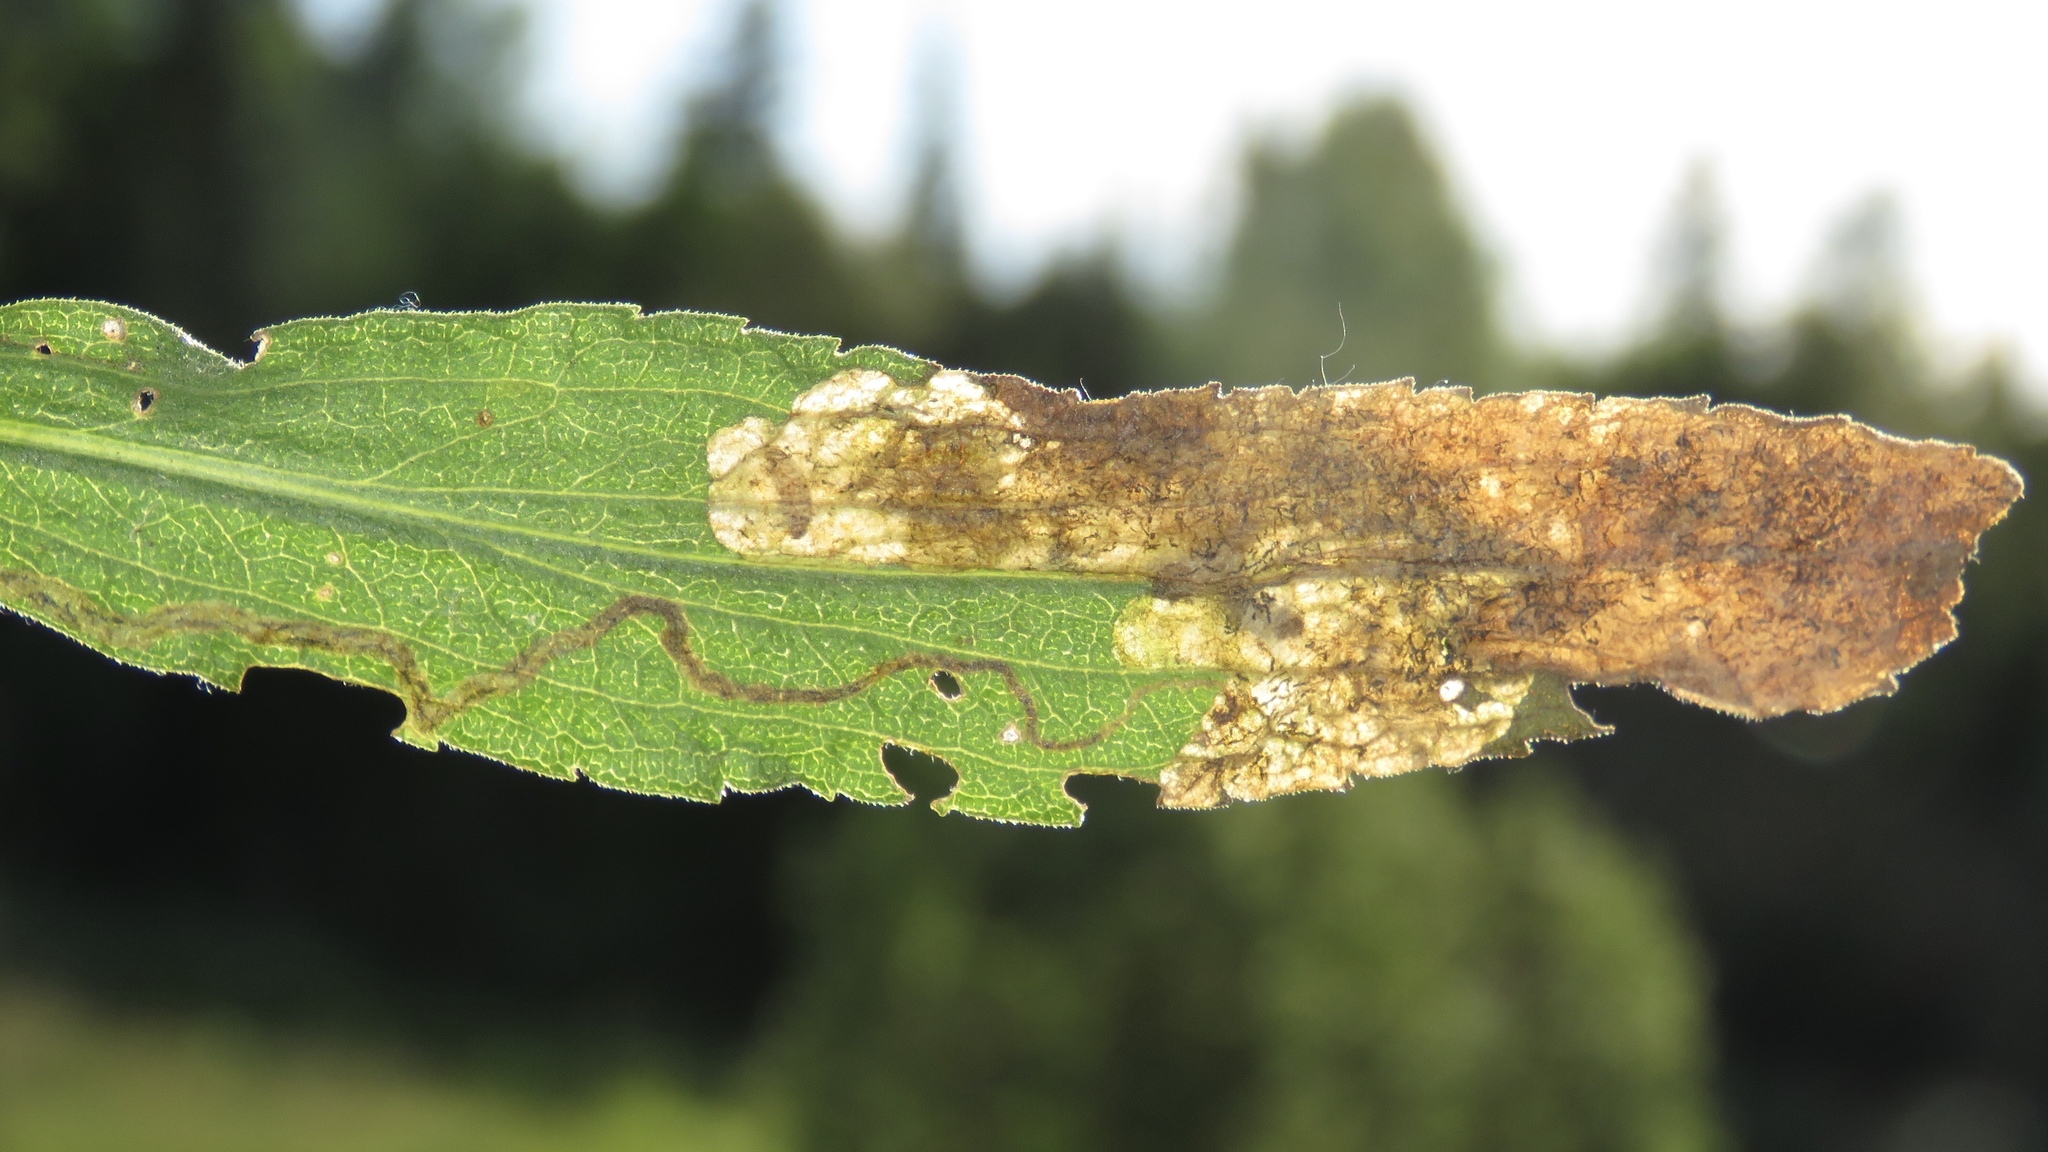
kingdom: Animalia
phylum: Arthropoda
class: Insecta
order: Coleoptera
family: Chrysomelidae
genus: Microrhopala
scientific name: Microrhopala vittata
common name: Goldenrod leaf miner beetle
